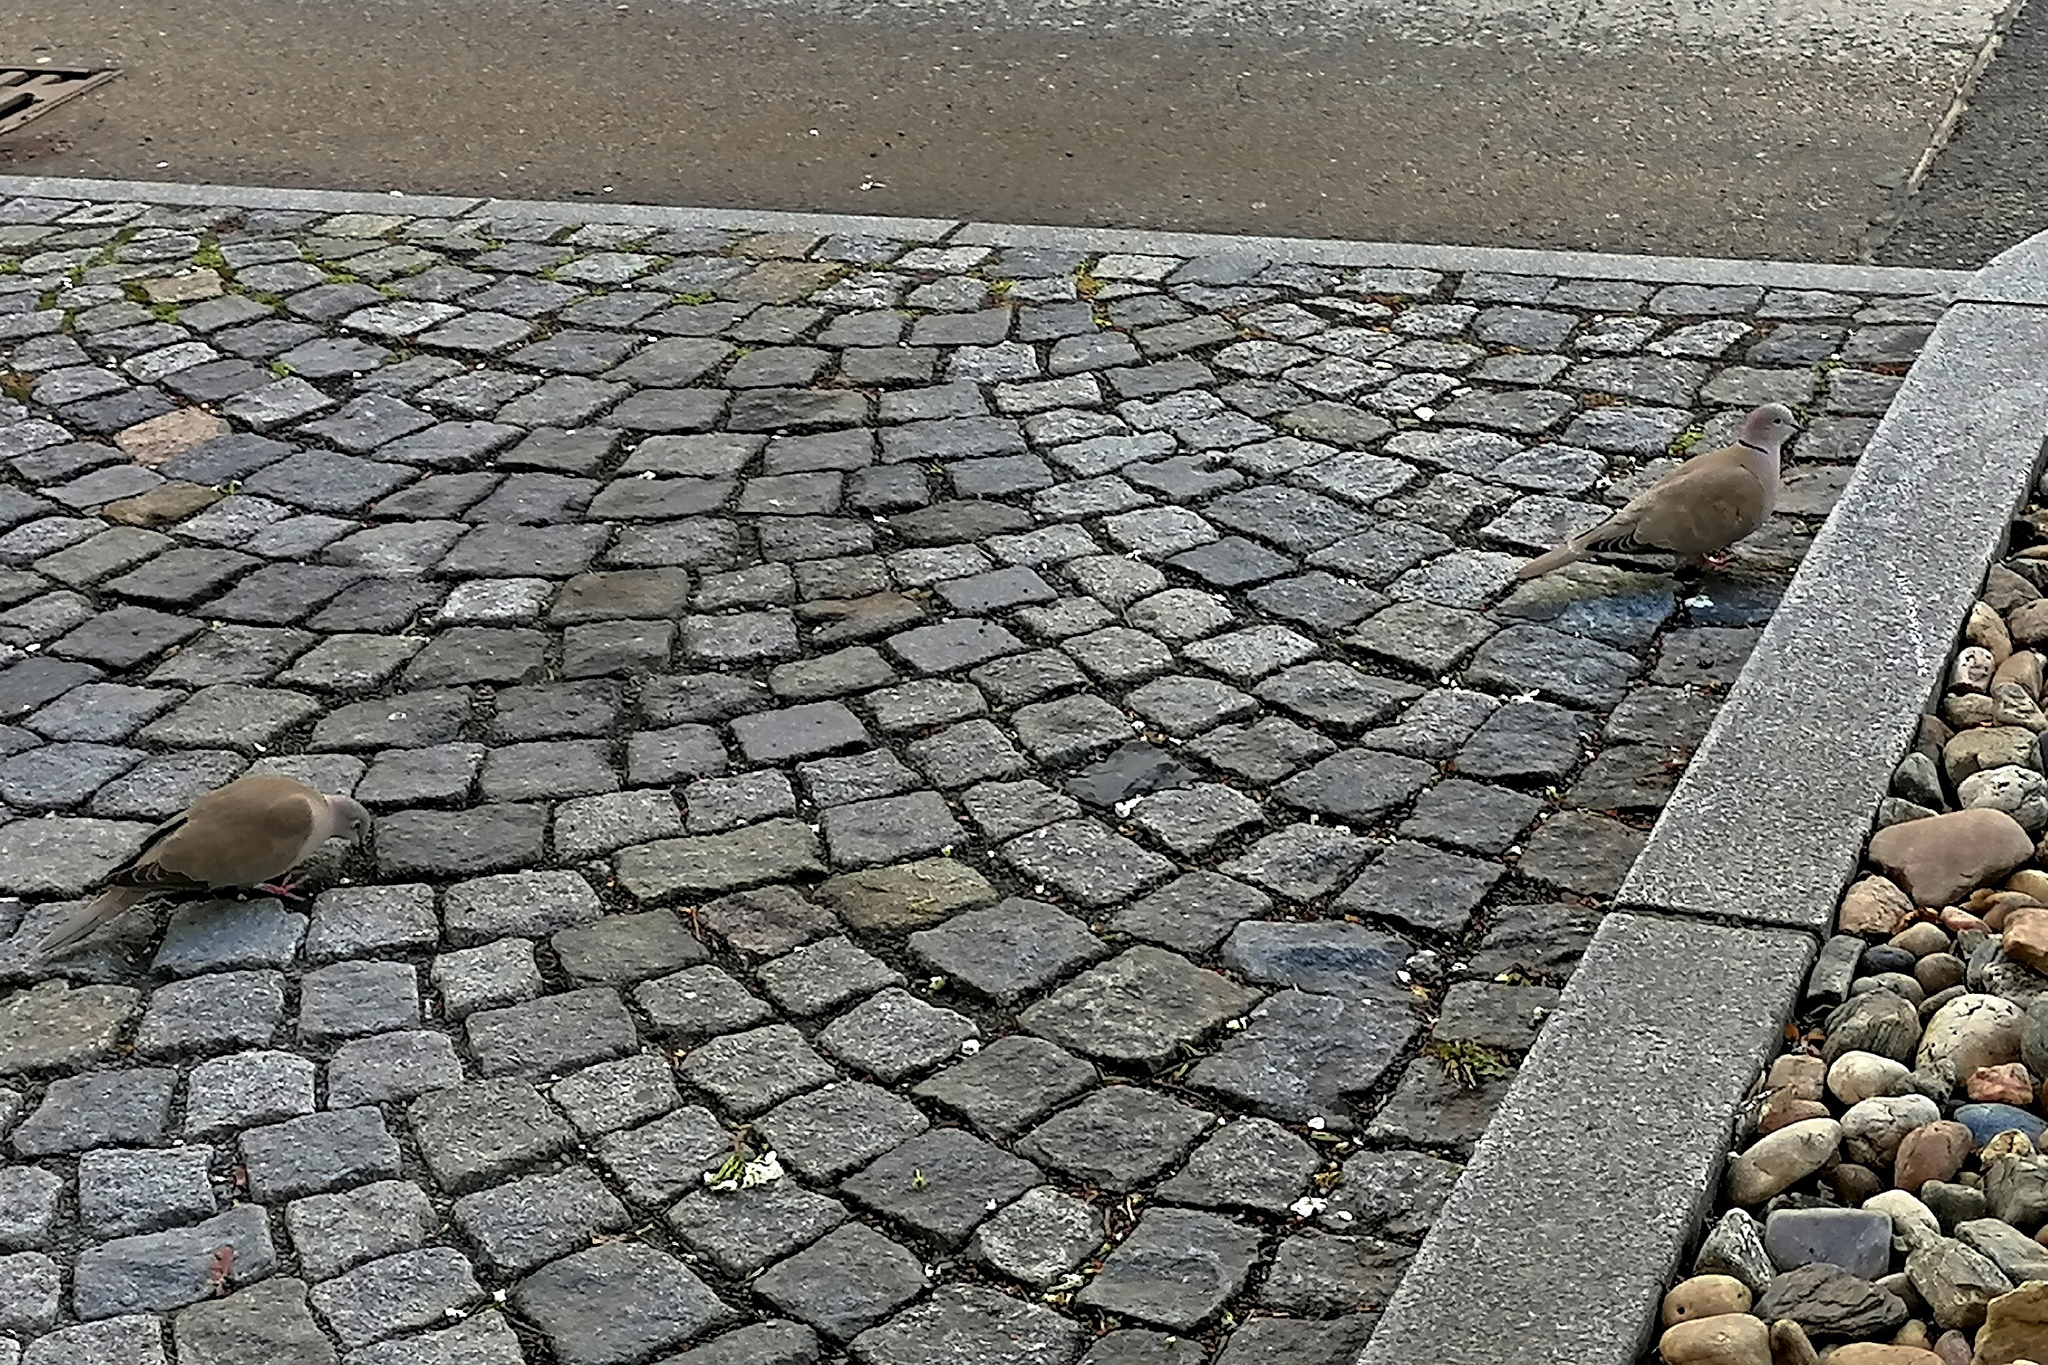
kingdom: Animalia
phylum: Chordata
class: Aves
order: Columbiformes
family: Columbidae
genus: Streptopelia
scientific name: Streptopelia decaocto
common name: Eurasian collared dove
